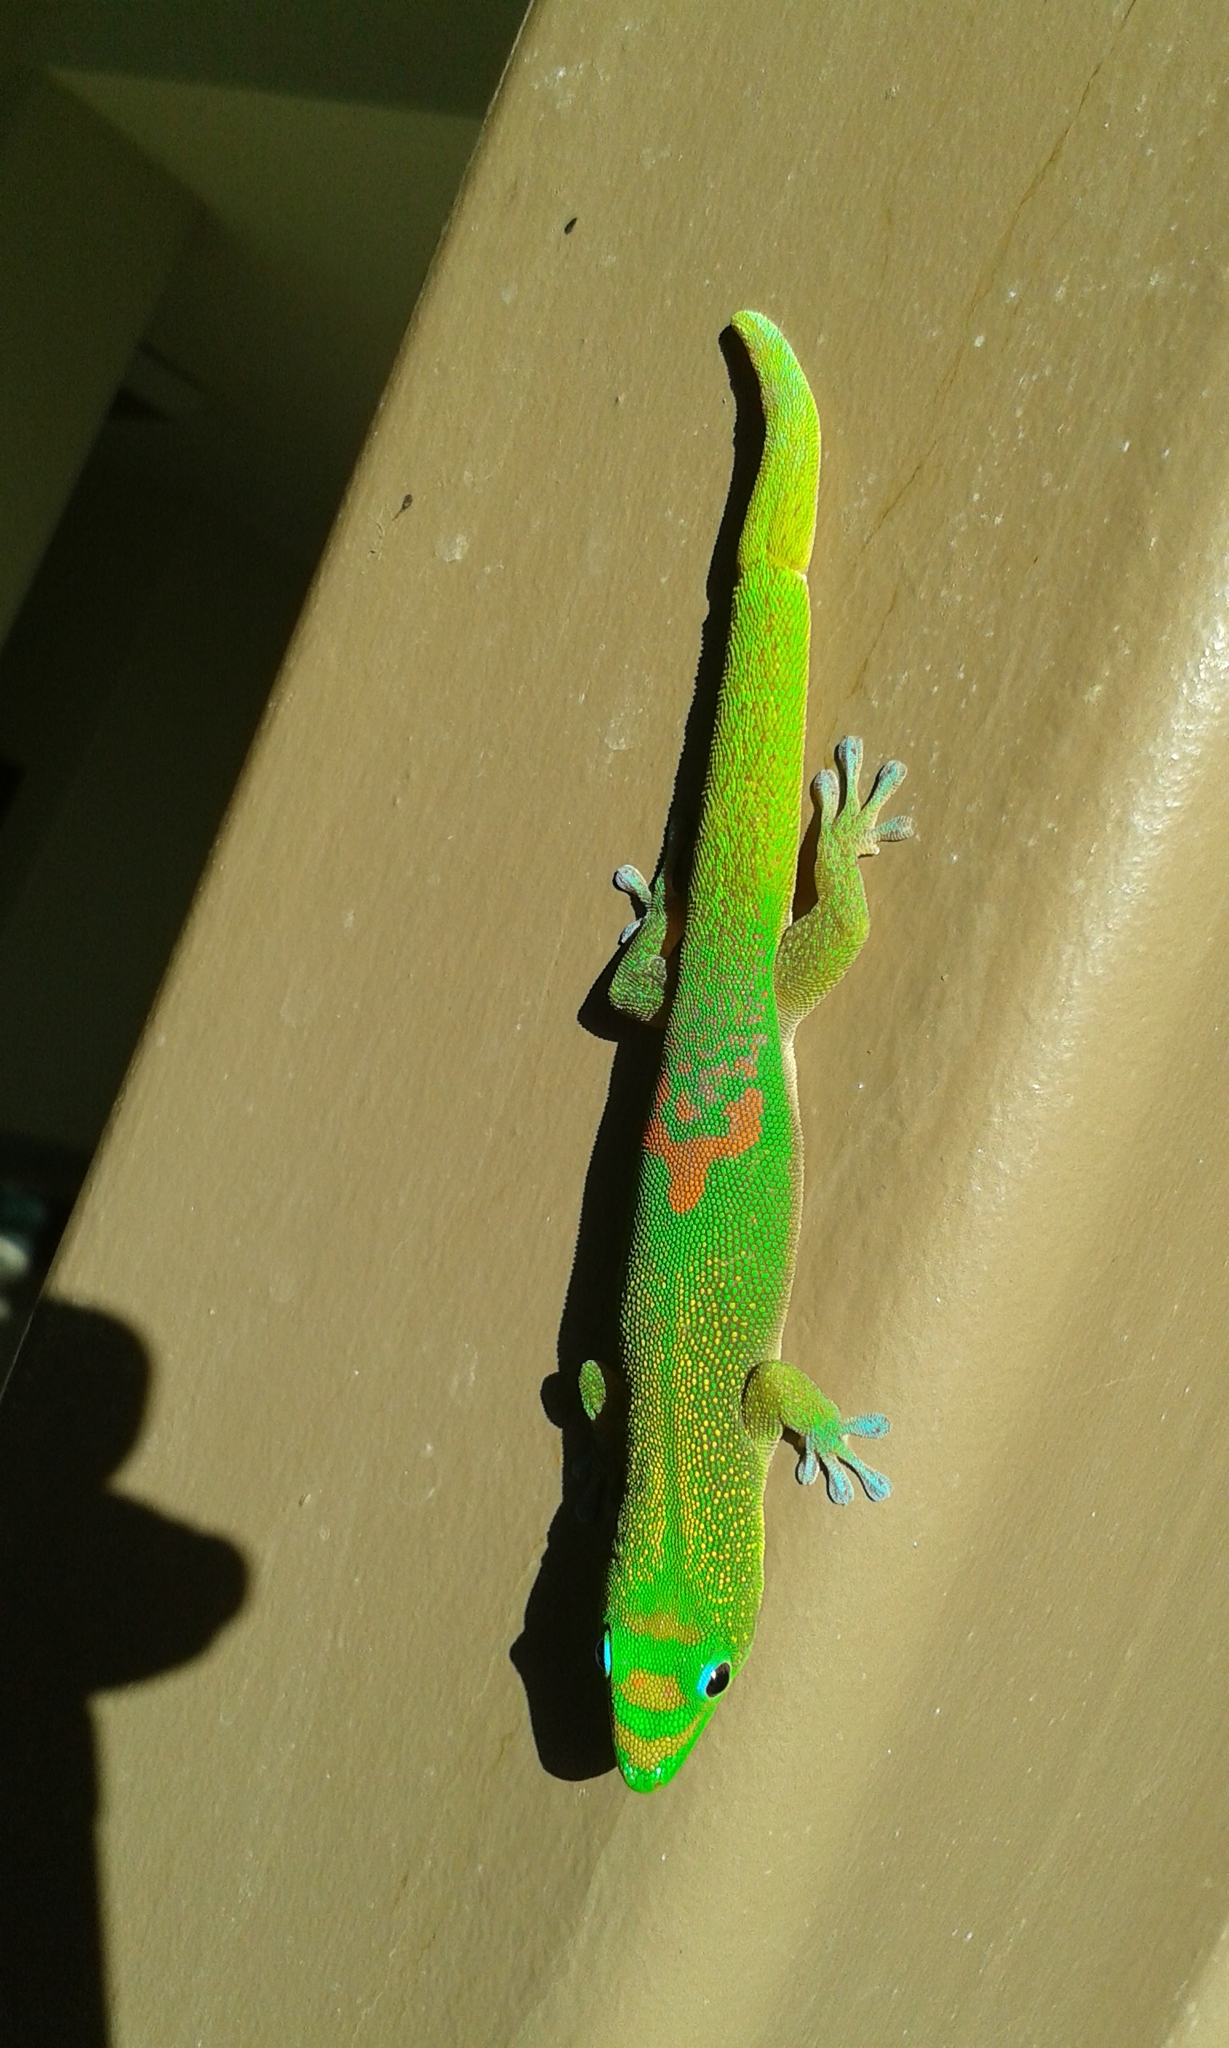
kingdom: Animalia
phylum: Chordata
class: Squamata
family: Gekkonidae
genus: Phelsuma
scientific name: Phelsuma laticauda
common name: Gold dust day gecko
